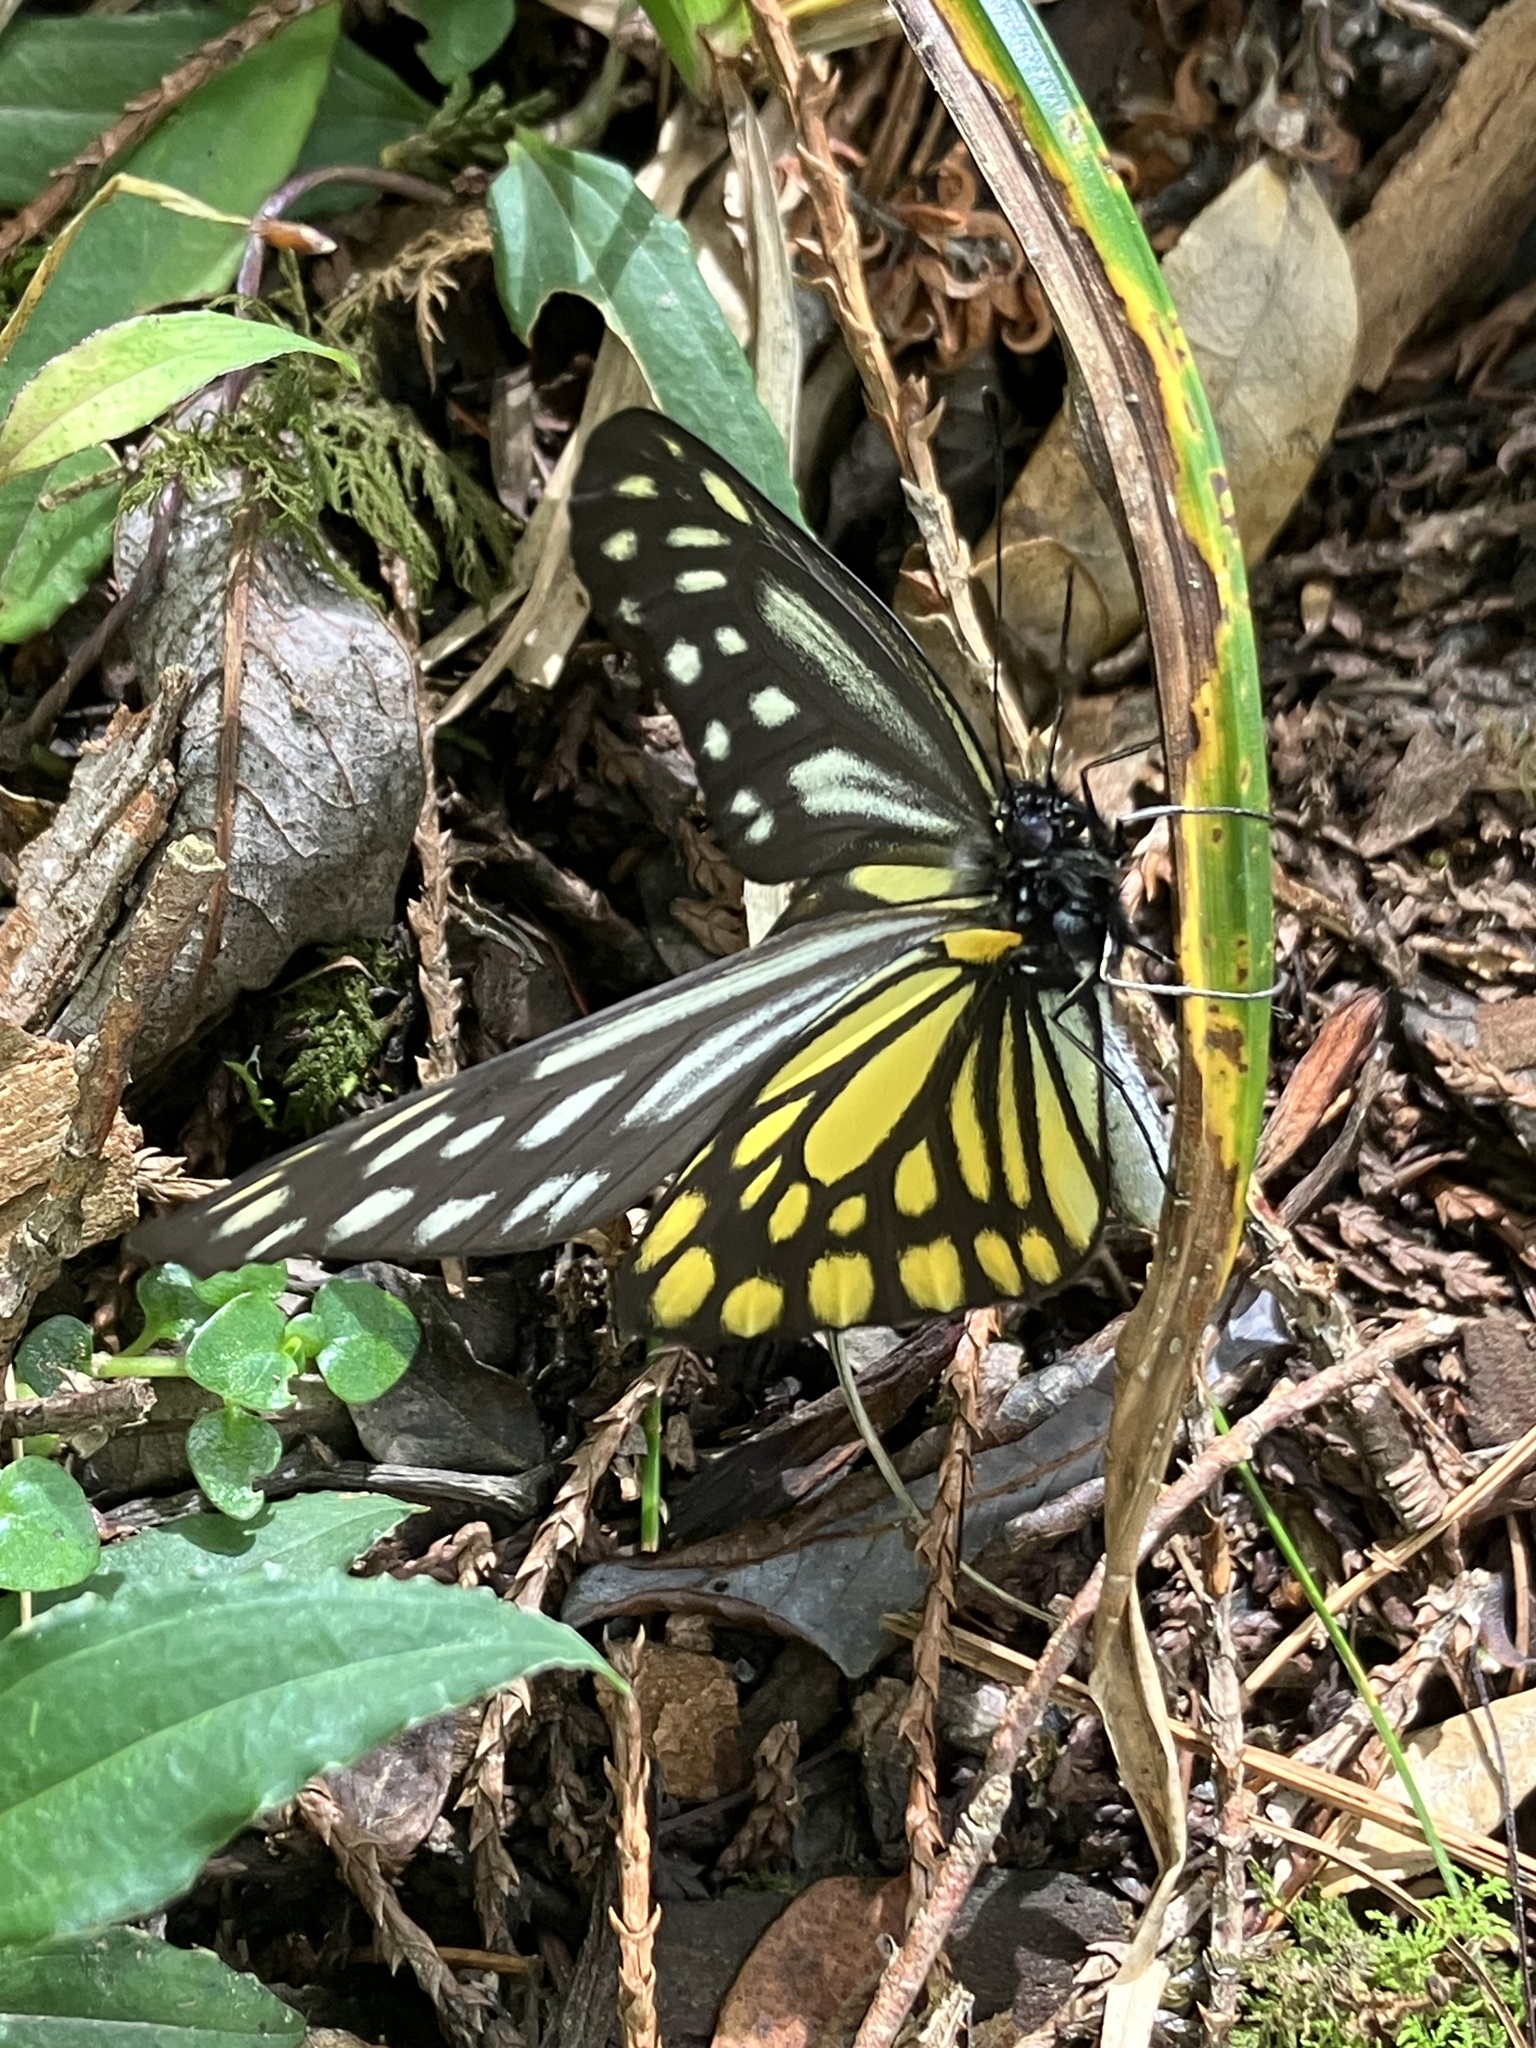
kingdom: Animalia
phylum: Arthropoda
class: Insecta
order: Lepidoptera
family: Pieridae
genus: Aporia
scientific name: Aporia agathon
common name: Great blackvein
